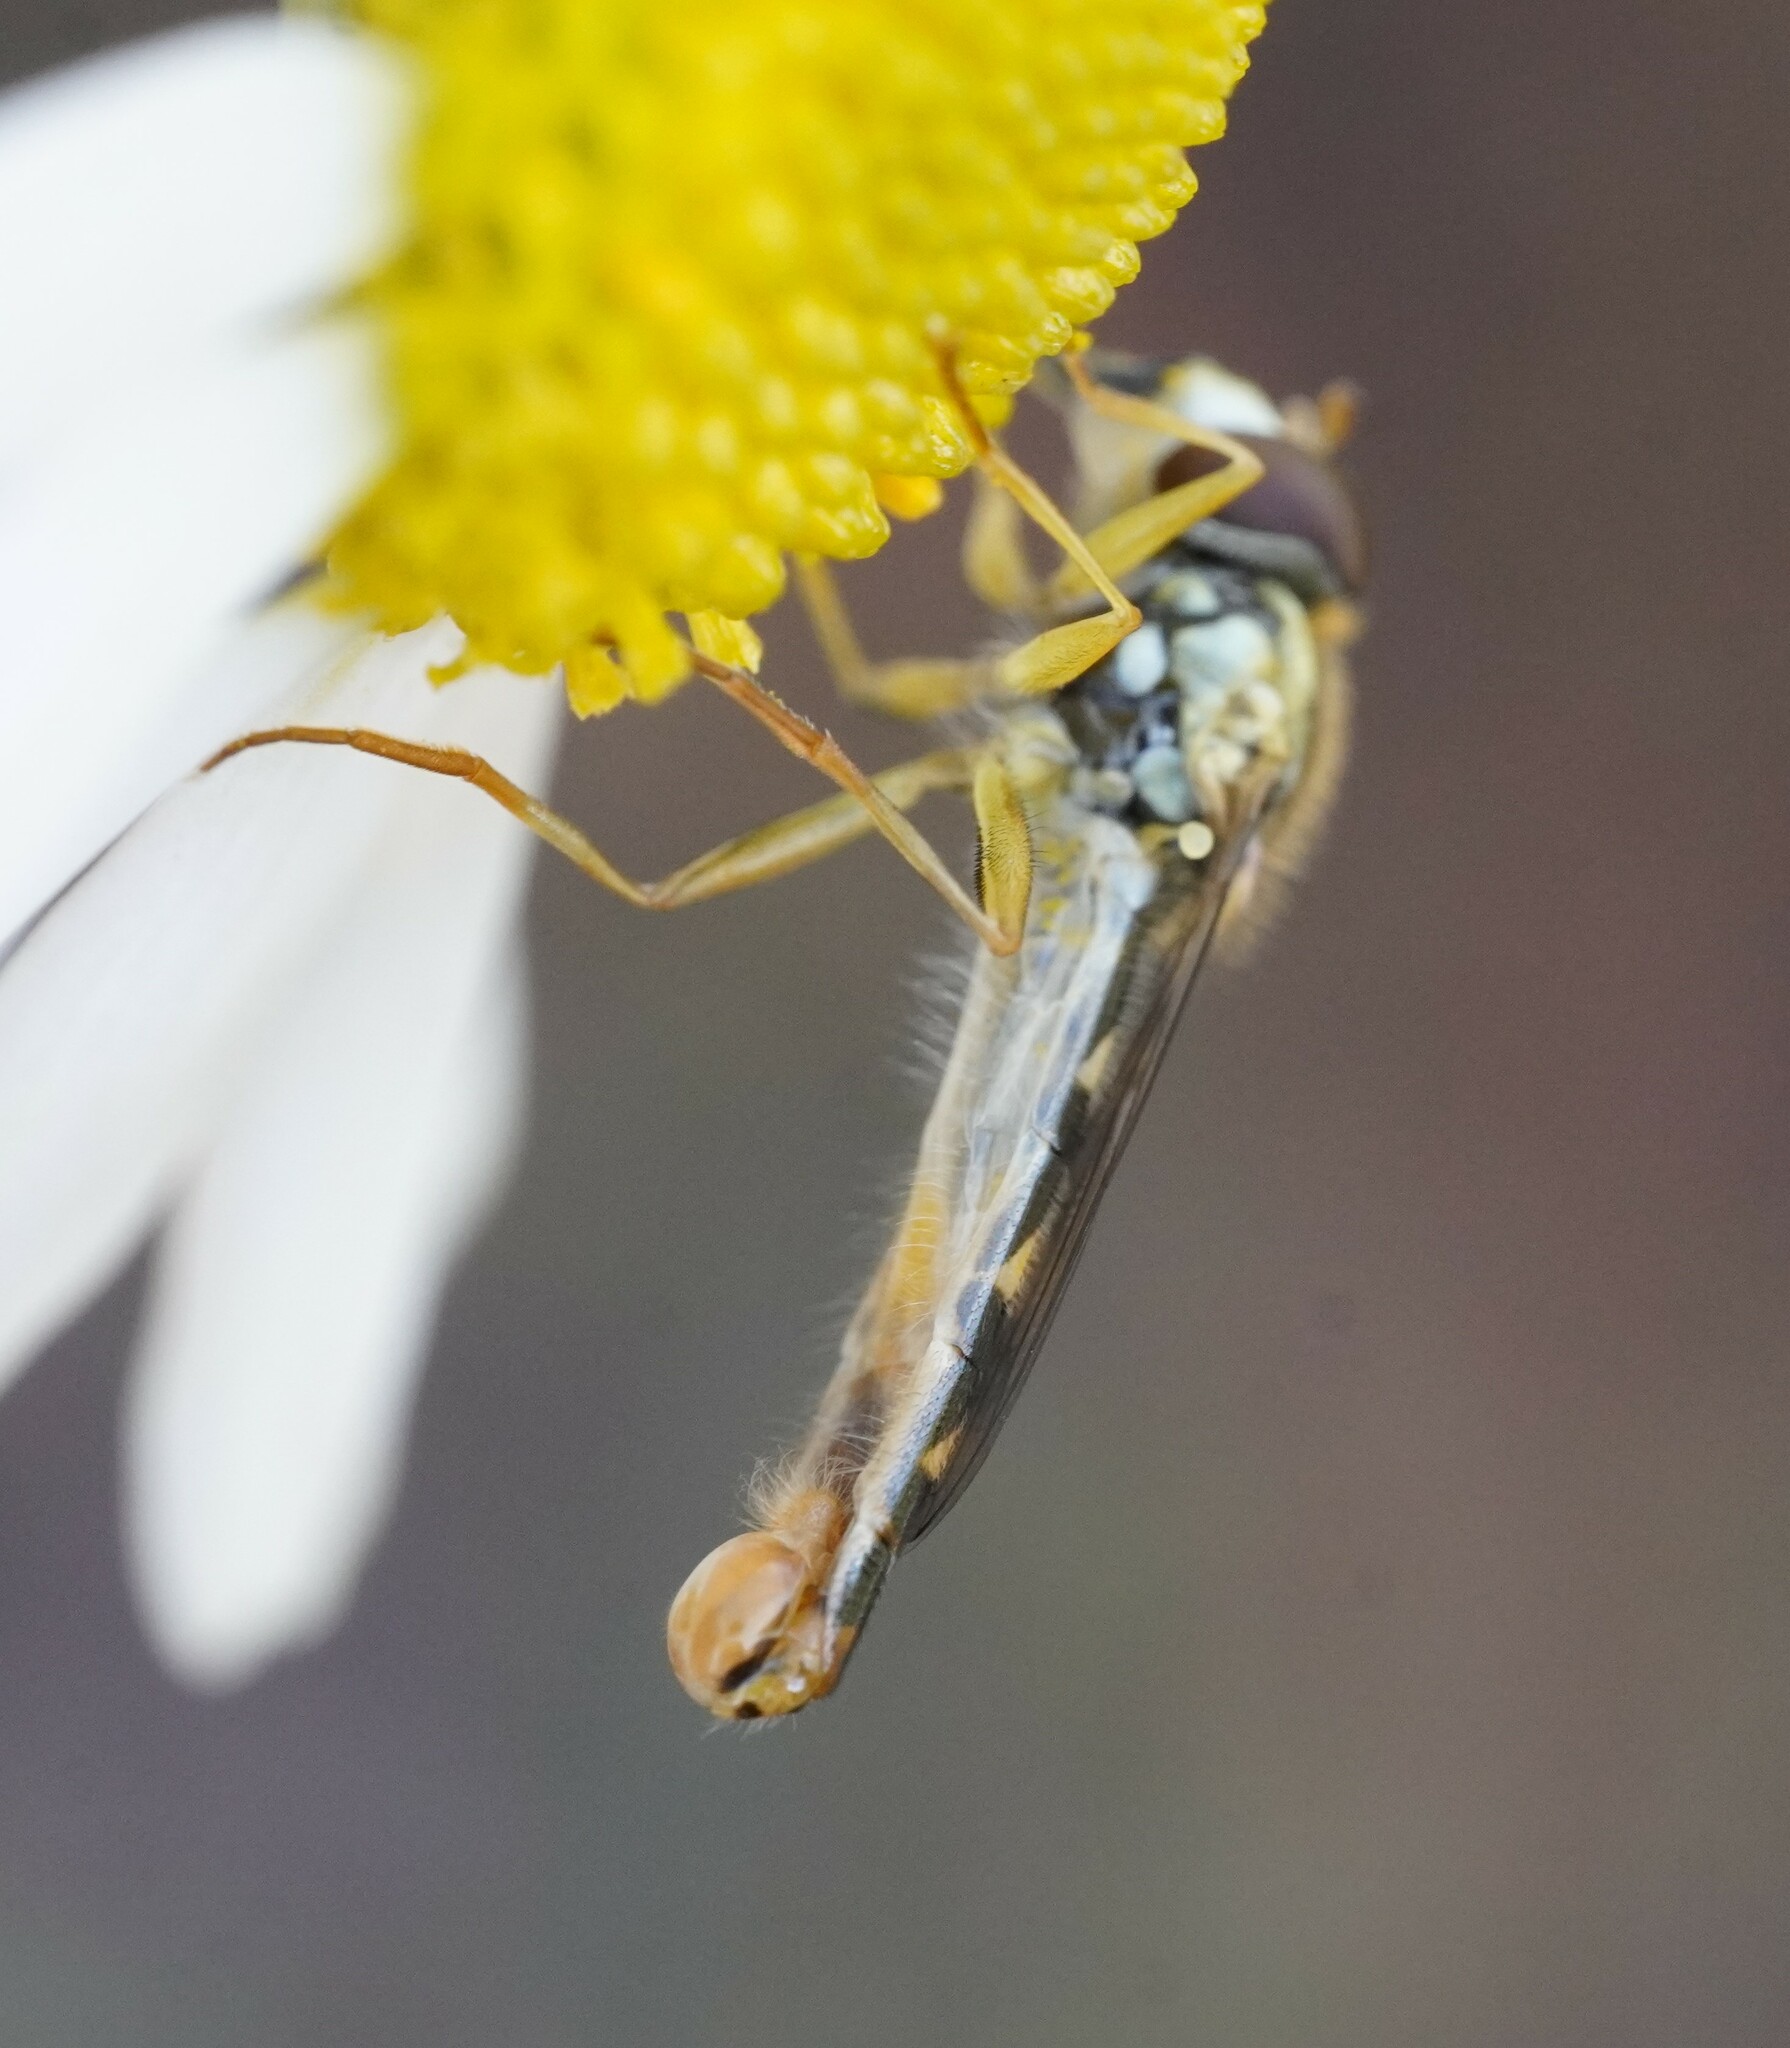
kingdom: Animalia
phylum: Arthropoda
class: Insecta
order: Diptera
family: Syrphidae
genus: Sphaerophoria
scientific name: Sphaerophoria scripta
